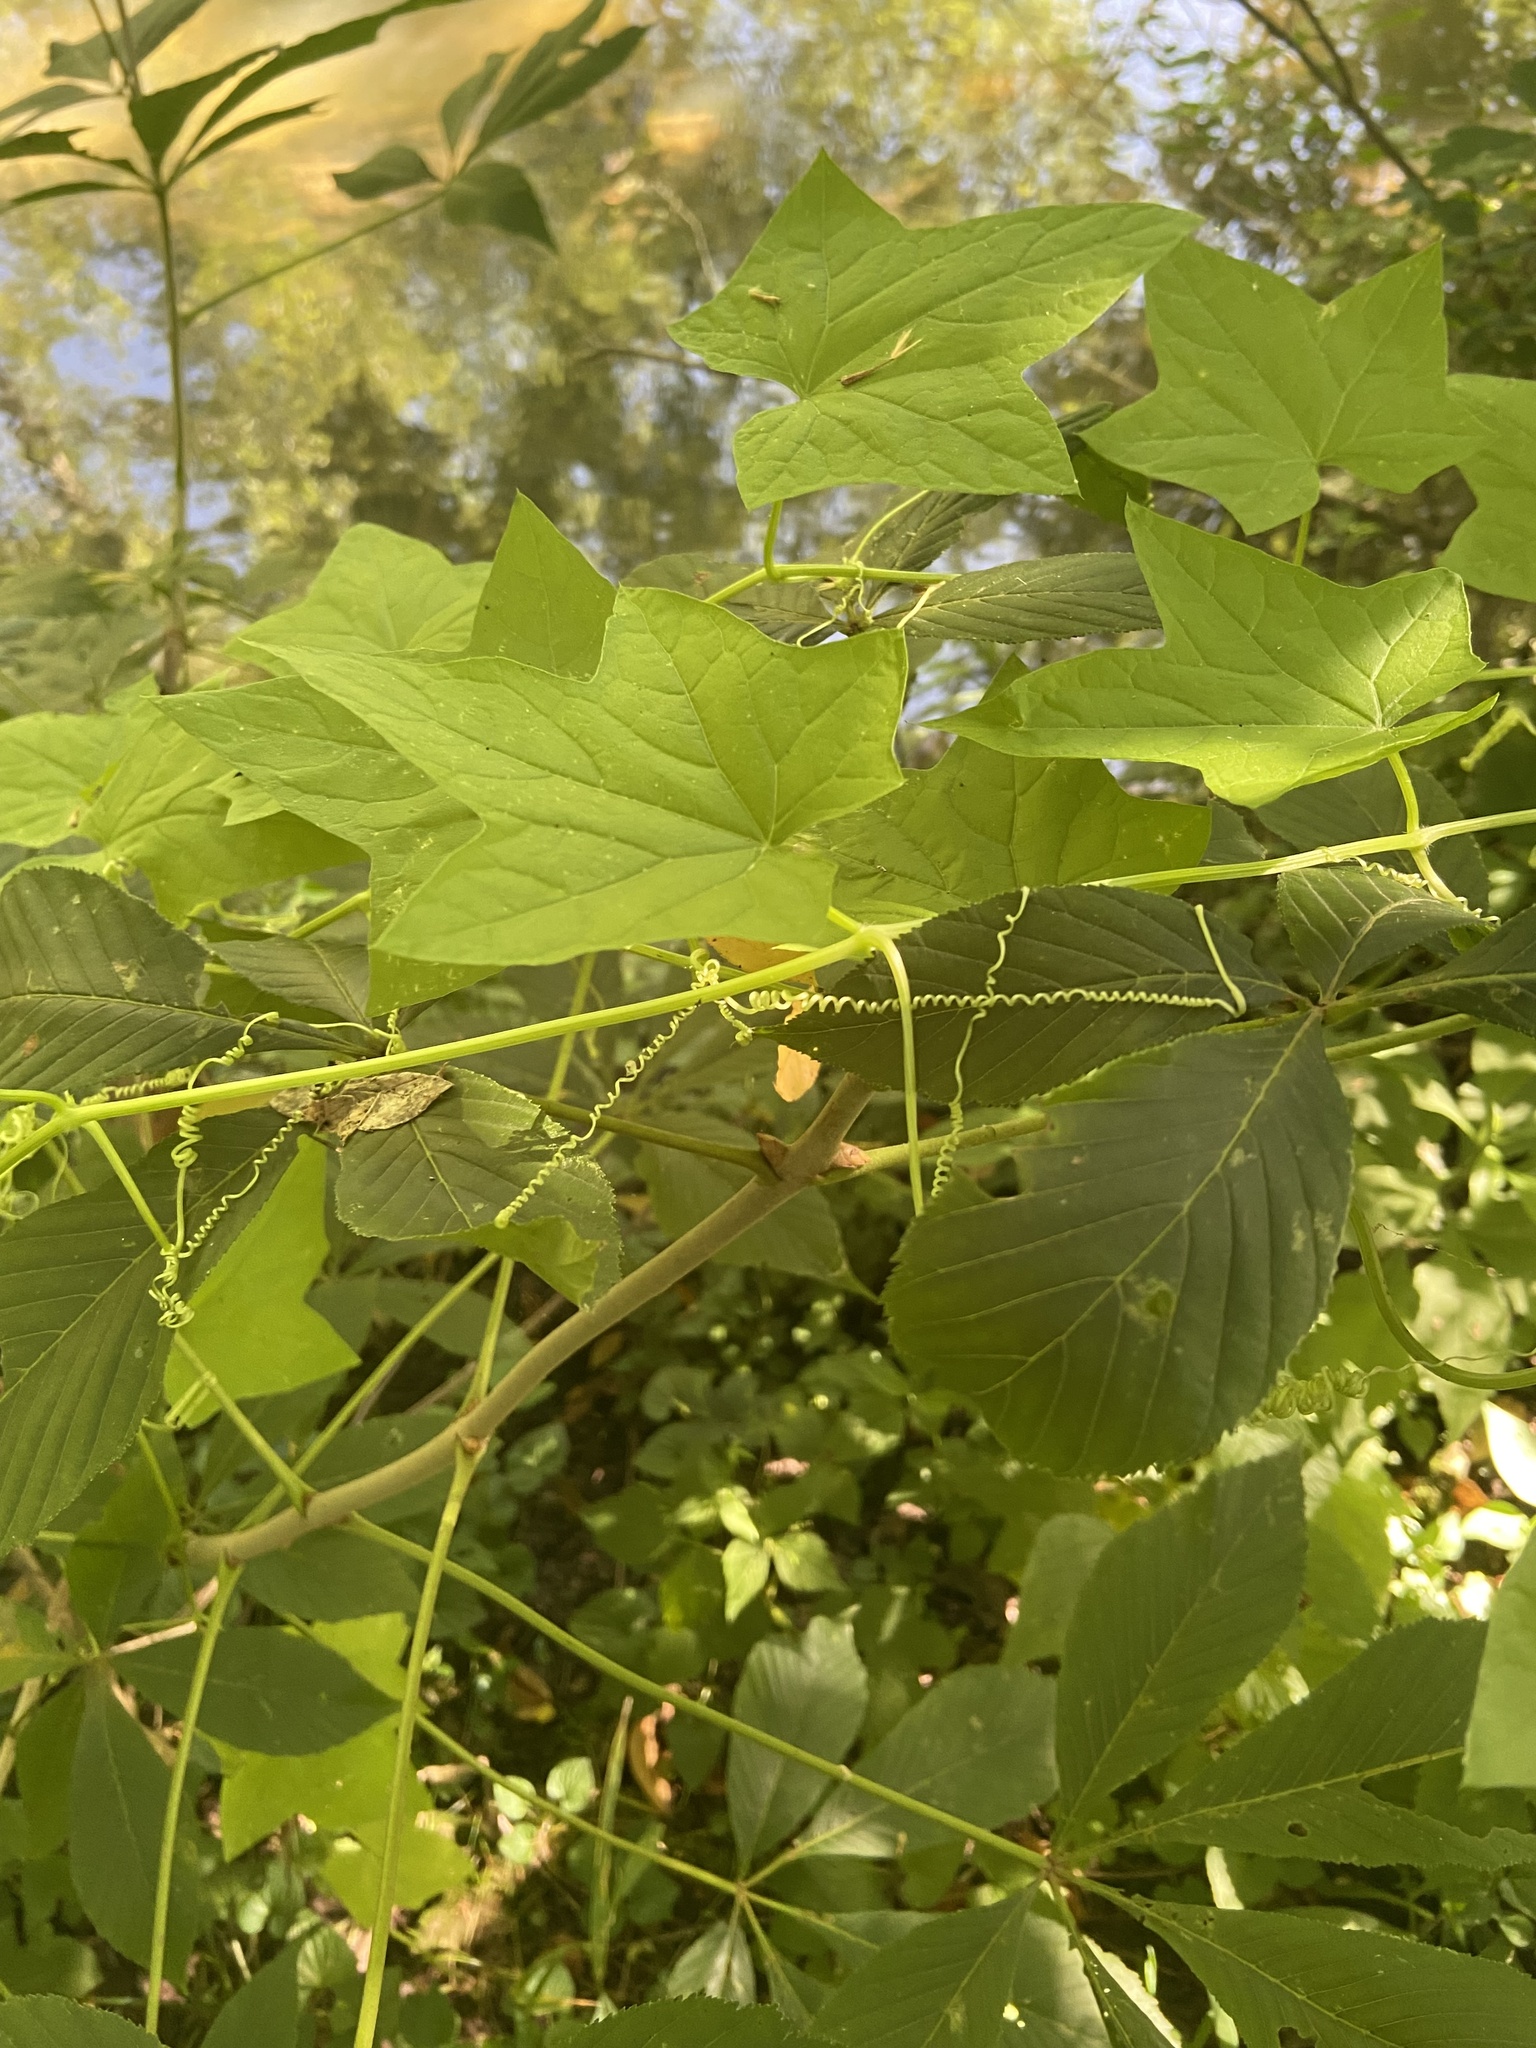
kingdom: Plantae
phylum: Tracheophyta
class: Magnoliopsida
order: Cucurbitales
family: Cucurbitaceae
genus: Echinocystis
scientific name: Echinocystis lobata
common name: Wild cucumber
